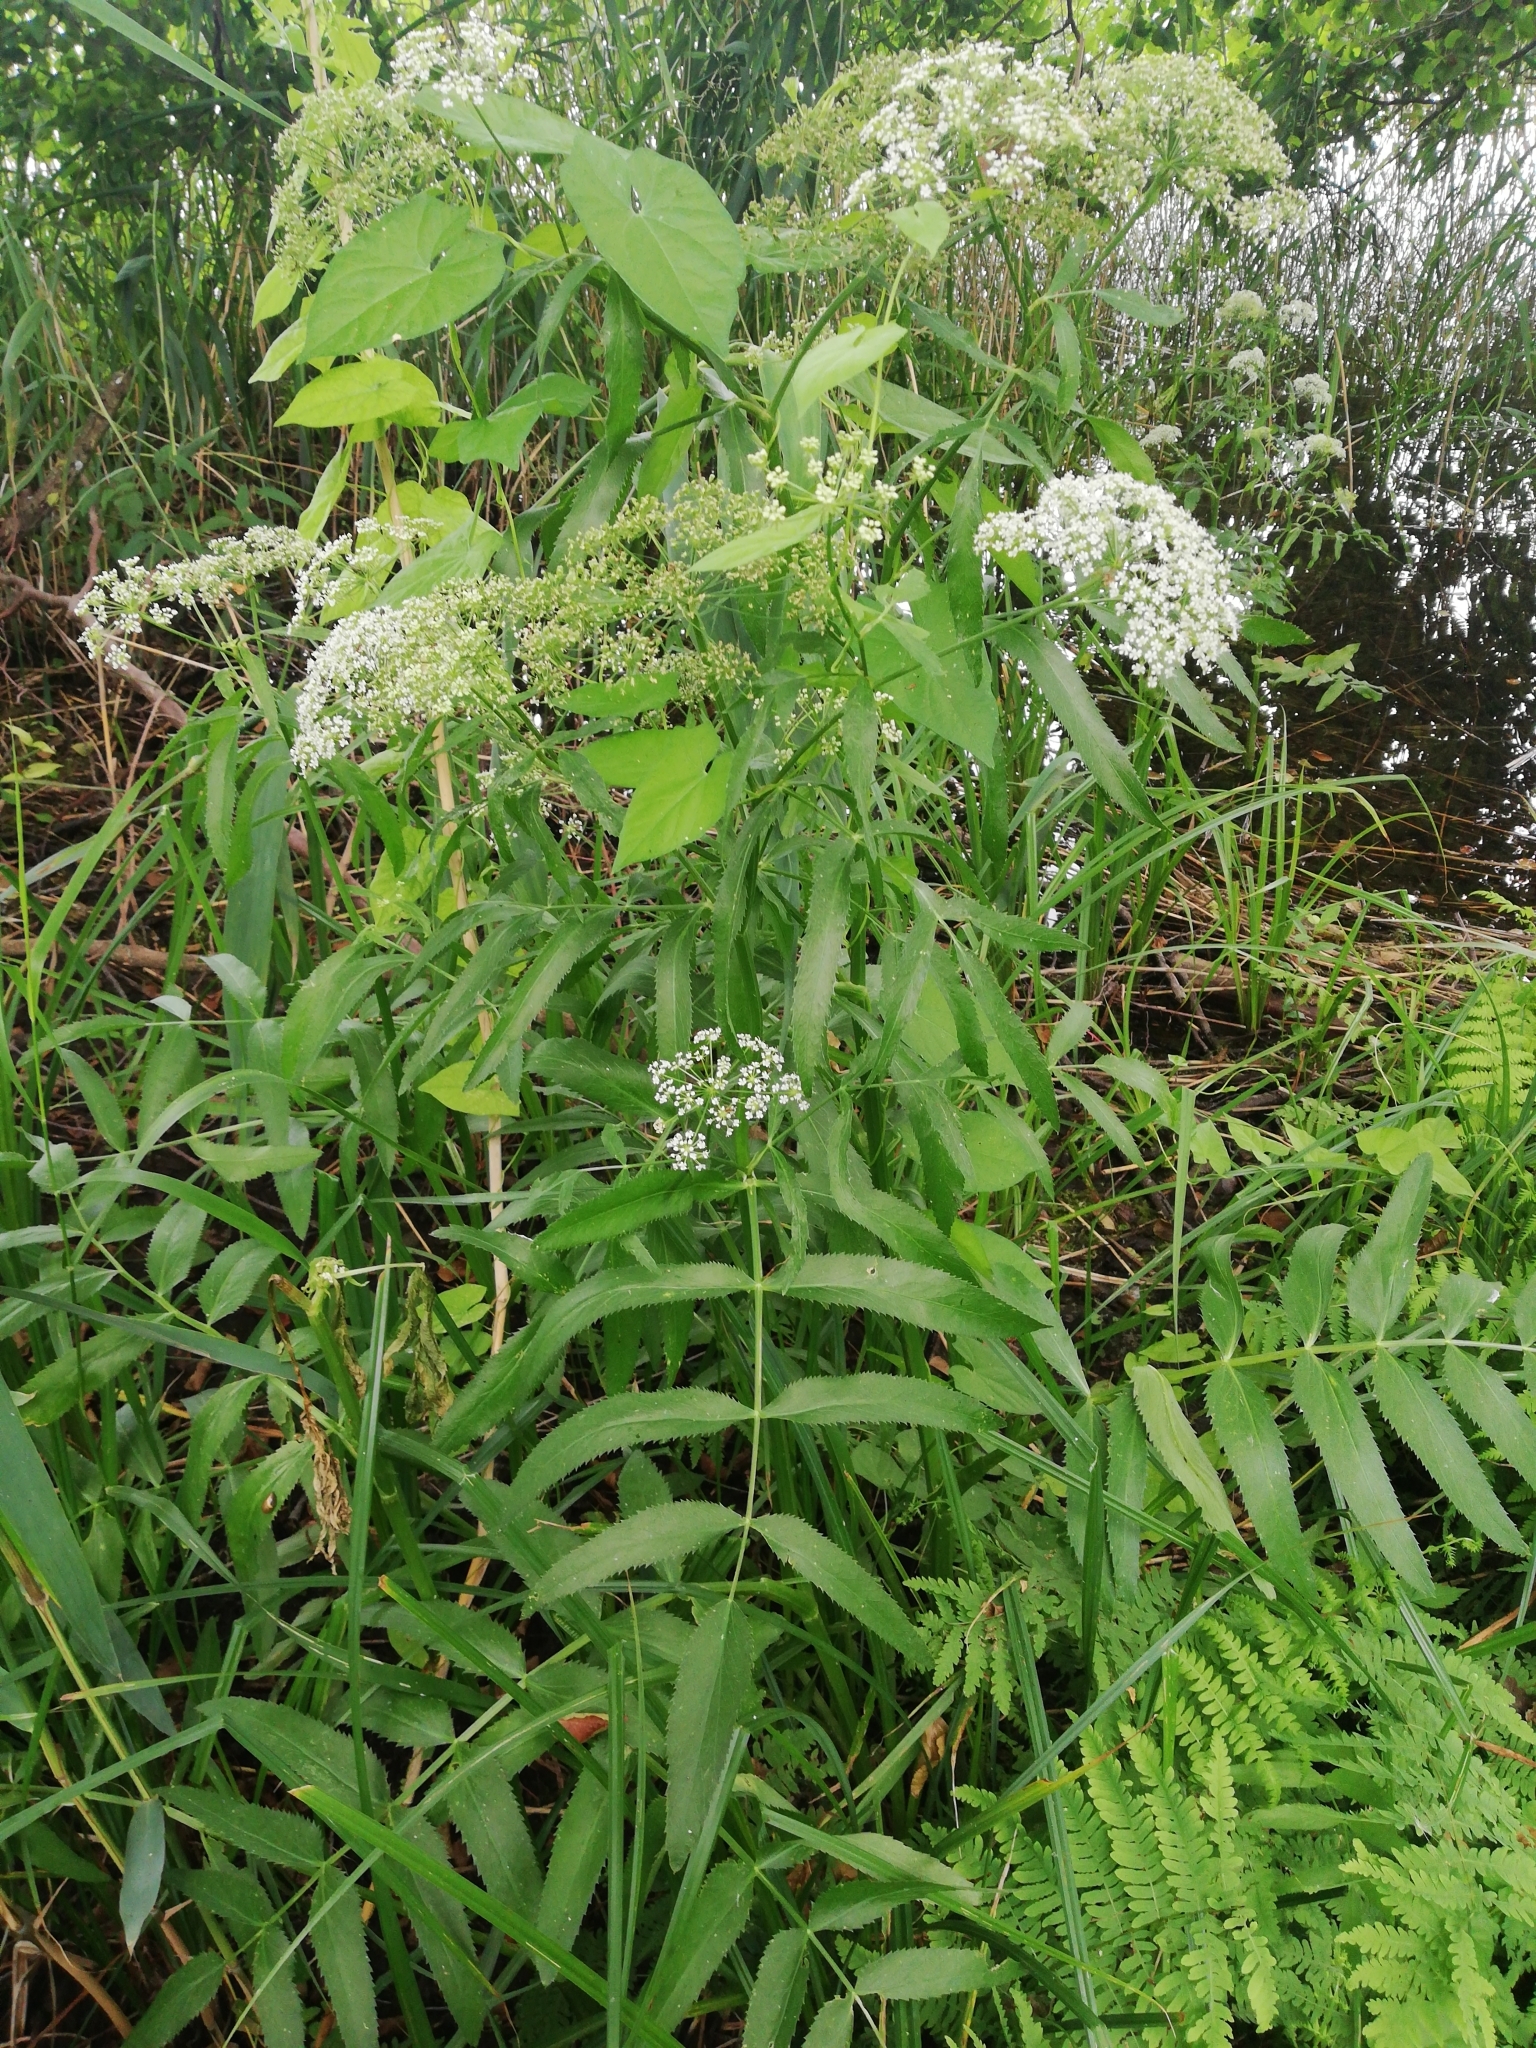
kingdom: Plantae
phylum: Tracheophyta
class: Magnoliopsida
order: Apiales
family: Apiaceae
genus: Sium
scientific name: Sium latifolium
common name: Greater water-parsnip
